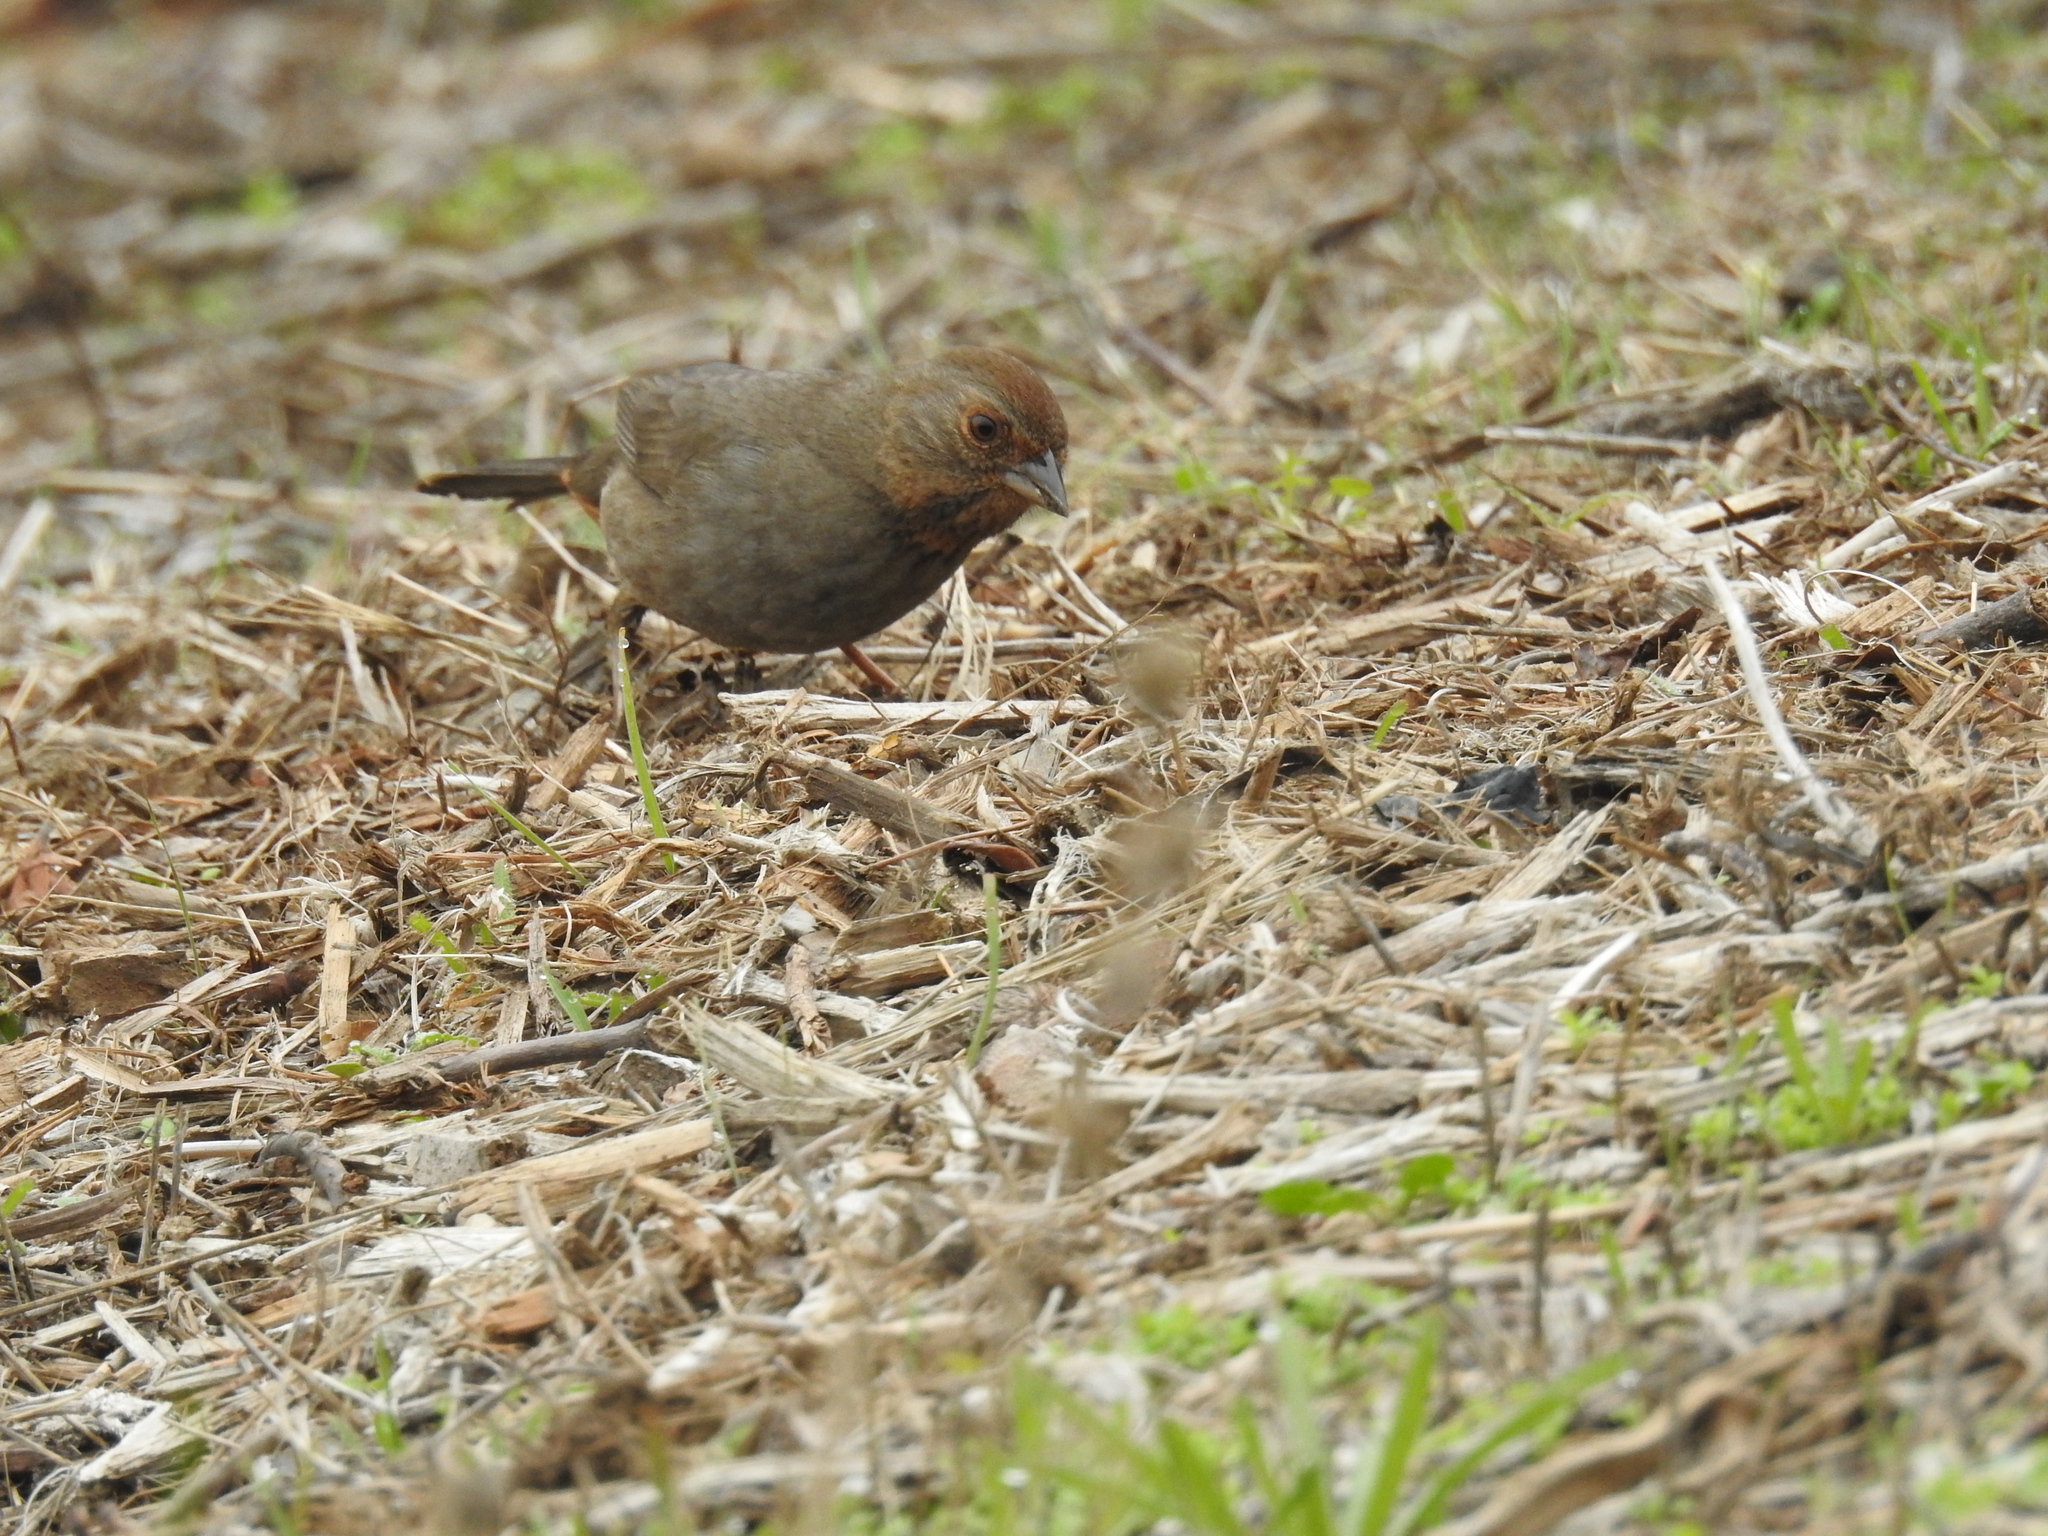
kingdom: Animalia
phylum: Chordata
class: Aves
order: Passeriformes
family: Passerellidae
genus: Melozone
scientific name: Melozone crissalis
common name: California towhee
